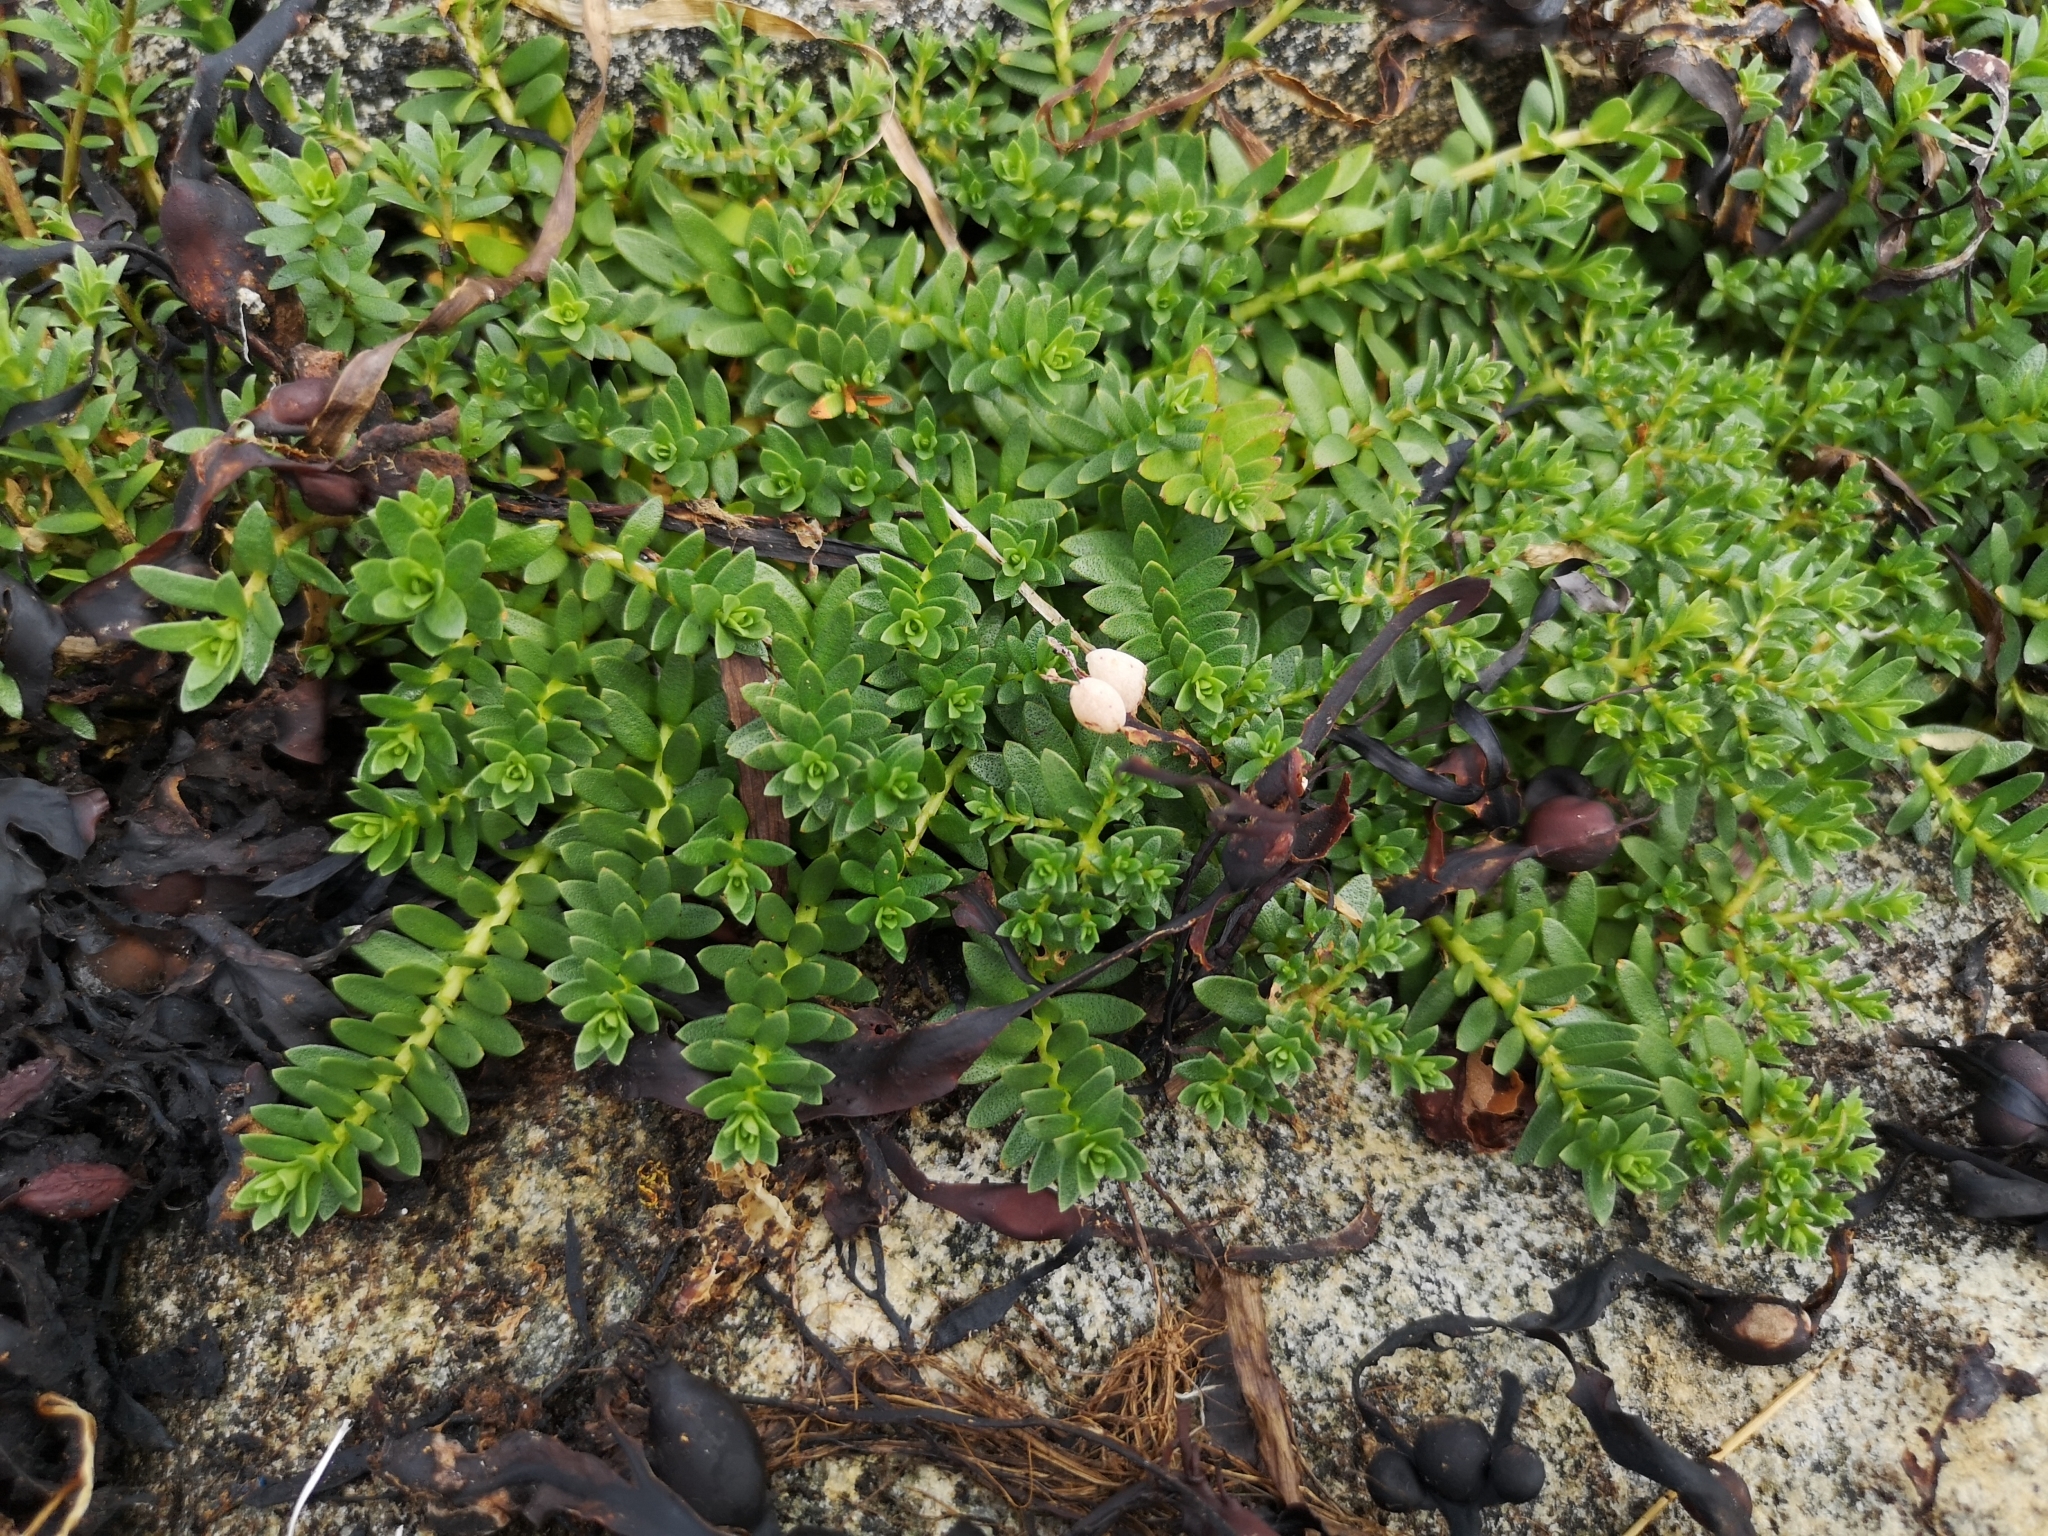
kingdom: Plantae
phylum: Tracheophyta
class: Magnoliopsida
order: Ericales
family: Primulaceae
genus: Lysimachia
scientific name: Lysimachia maritima
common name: Sea milkwort
